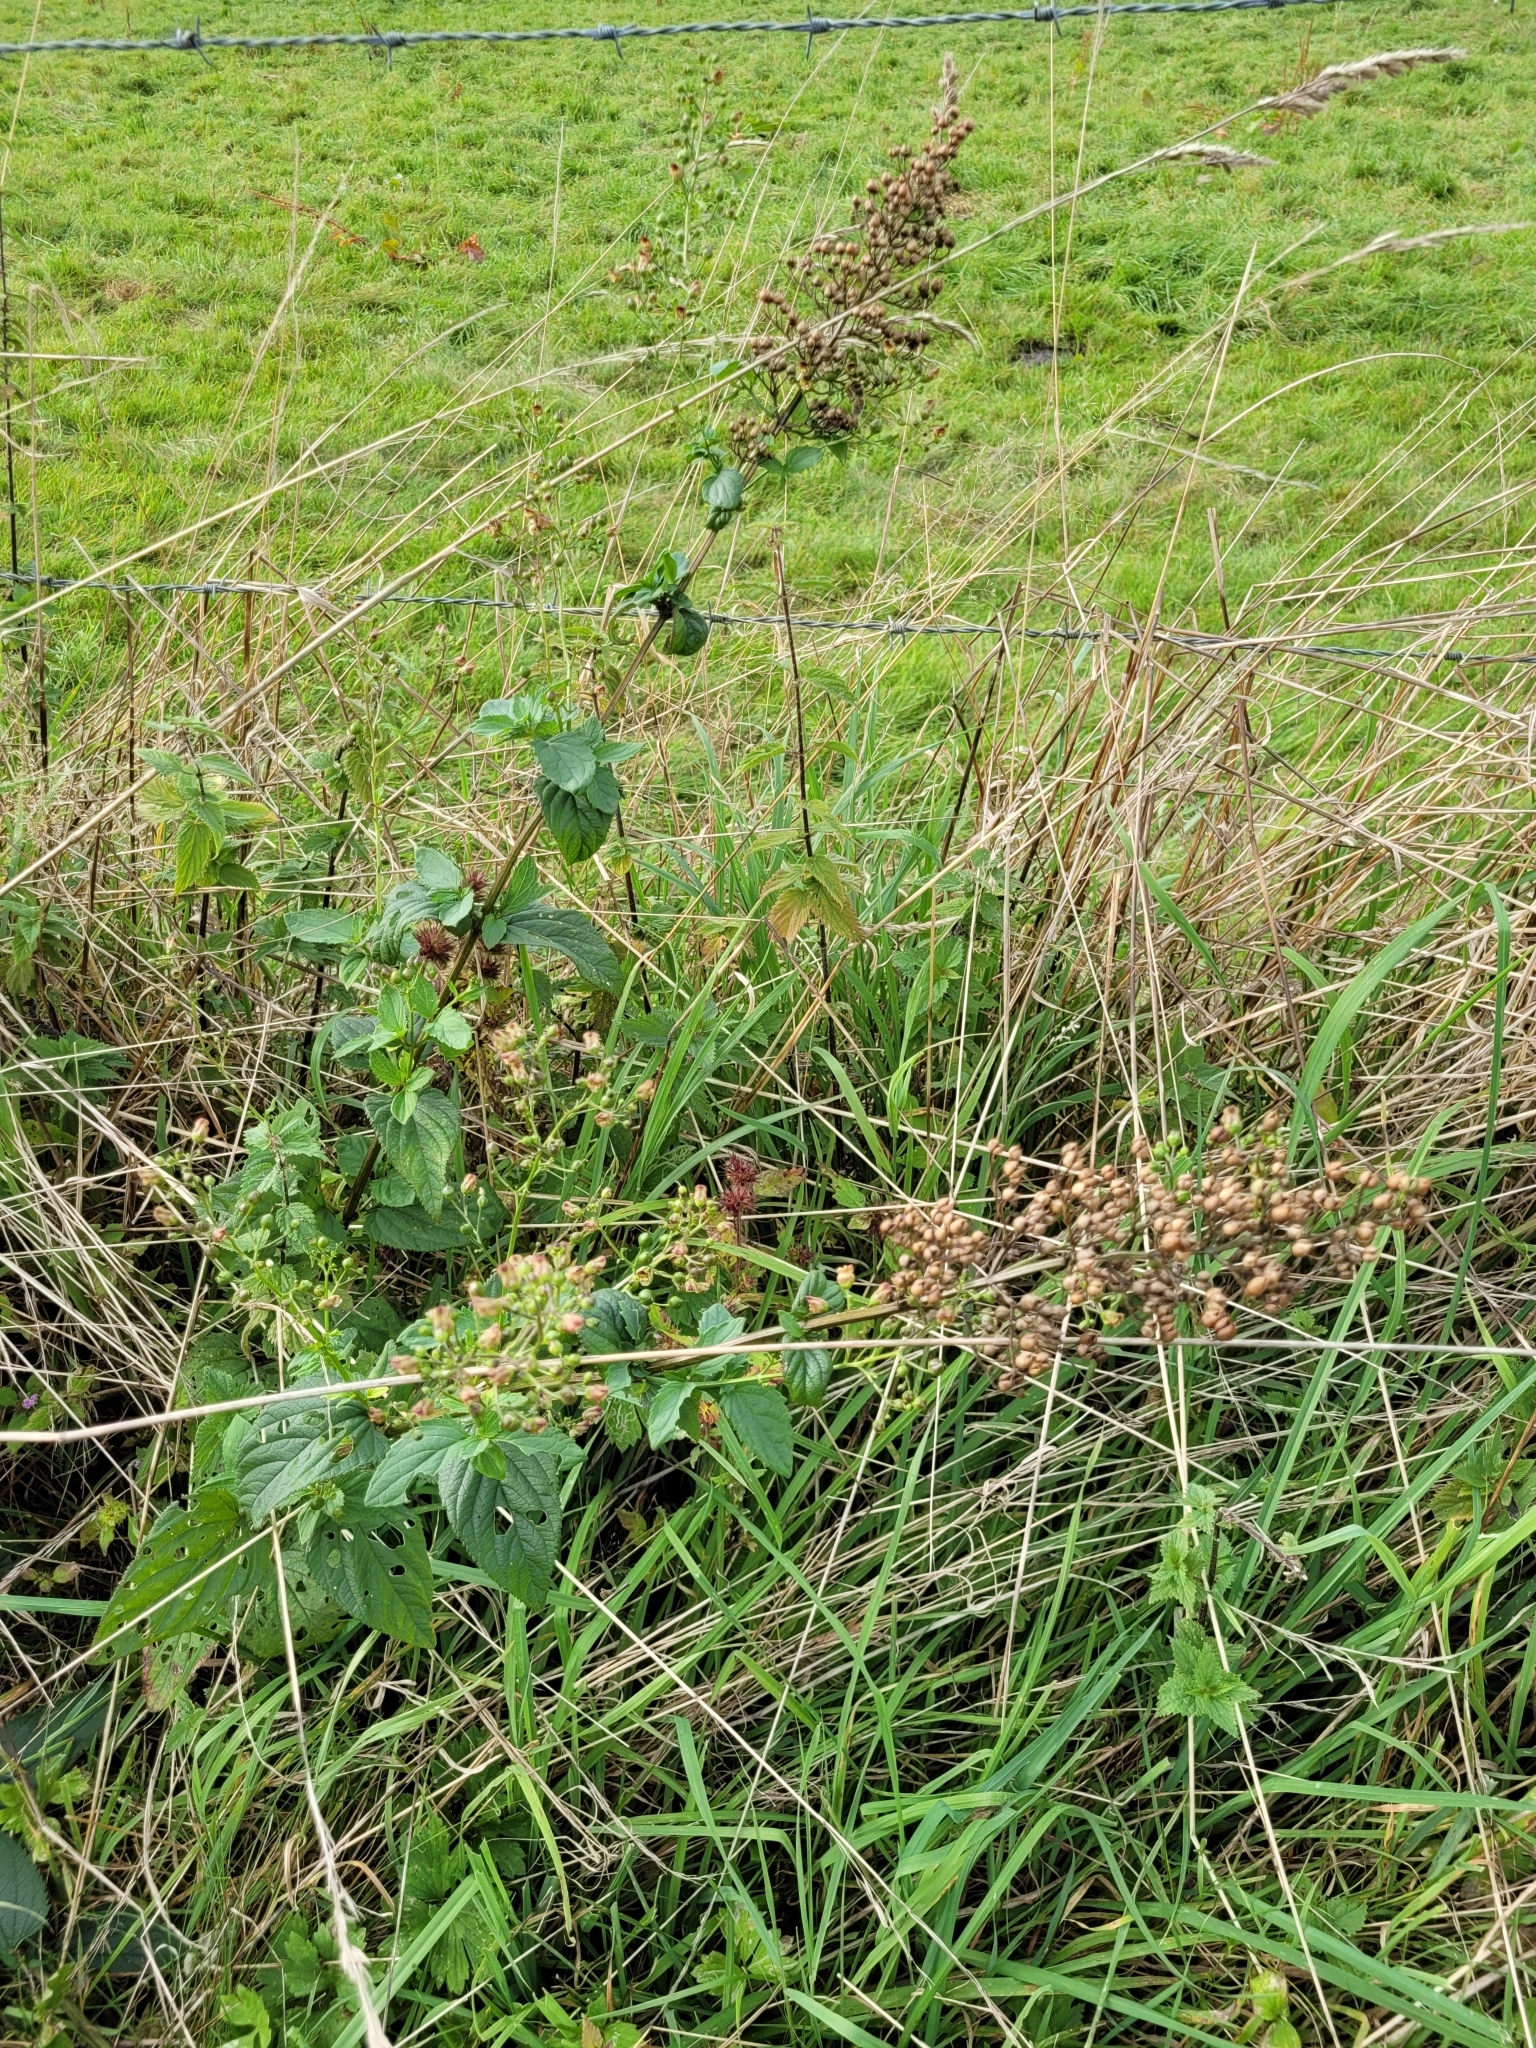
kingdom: Plantae
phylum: Tracheophyta
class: Magnoliopsida
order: Lamiales
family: Scrophulariaceae
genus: Scrophularia
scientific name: Scrophularia nodosa
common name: Common figwort
